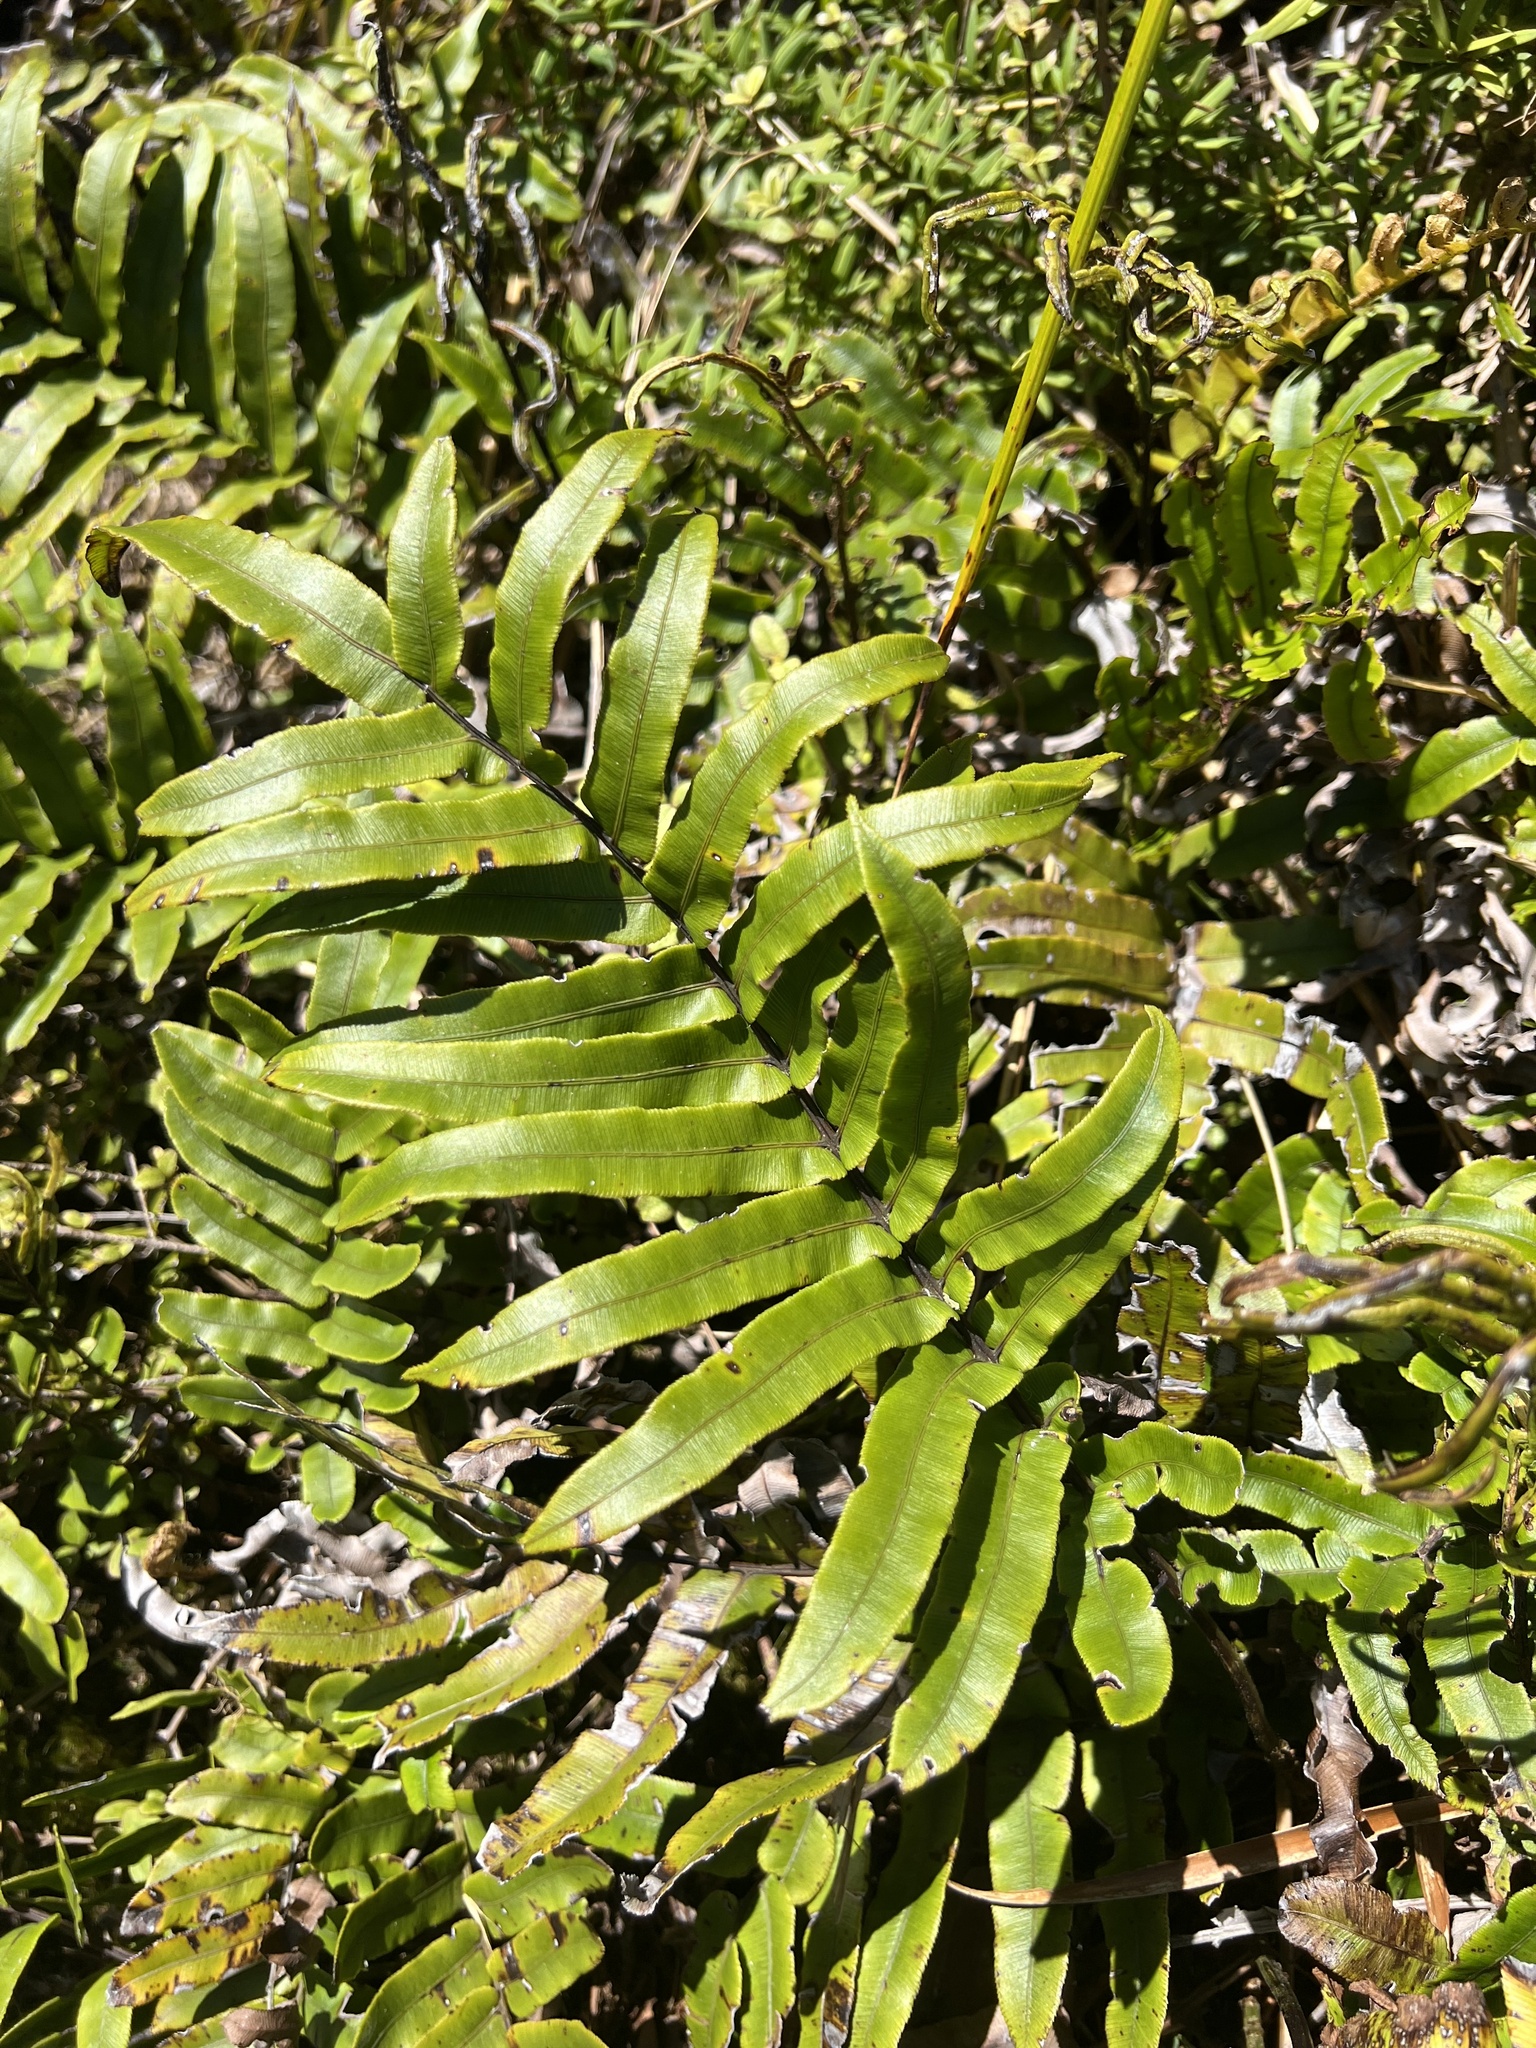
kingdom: Plantae
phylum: Tracheophyta
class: Polypodiopsida
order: Polypodiales
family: Blechnaceae
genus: Parablechnum
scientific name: Parablechnum montanum
